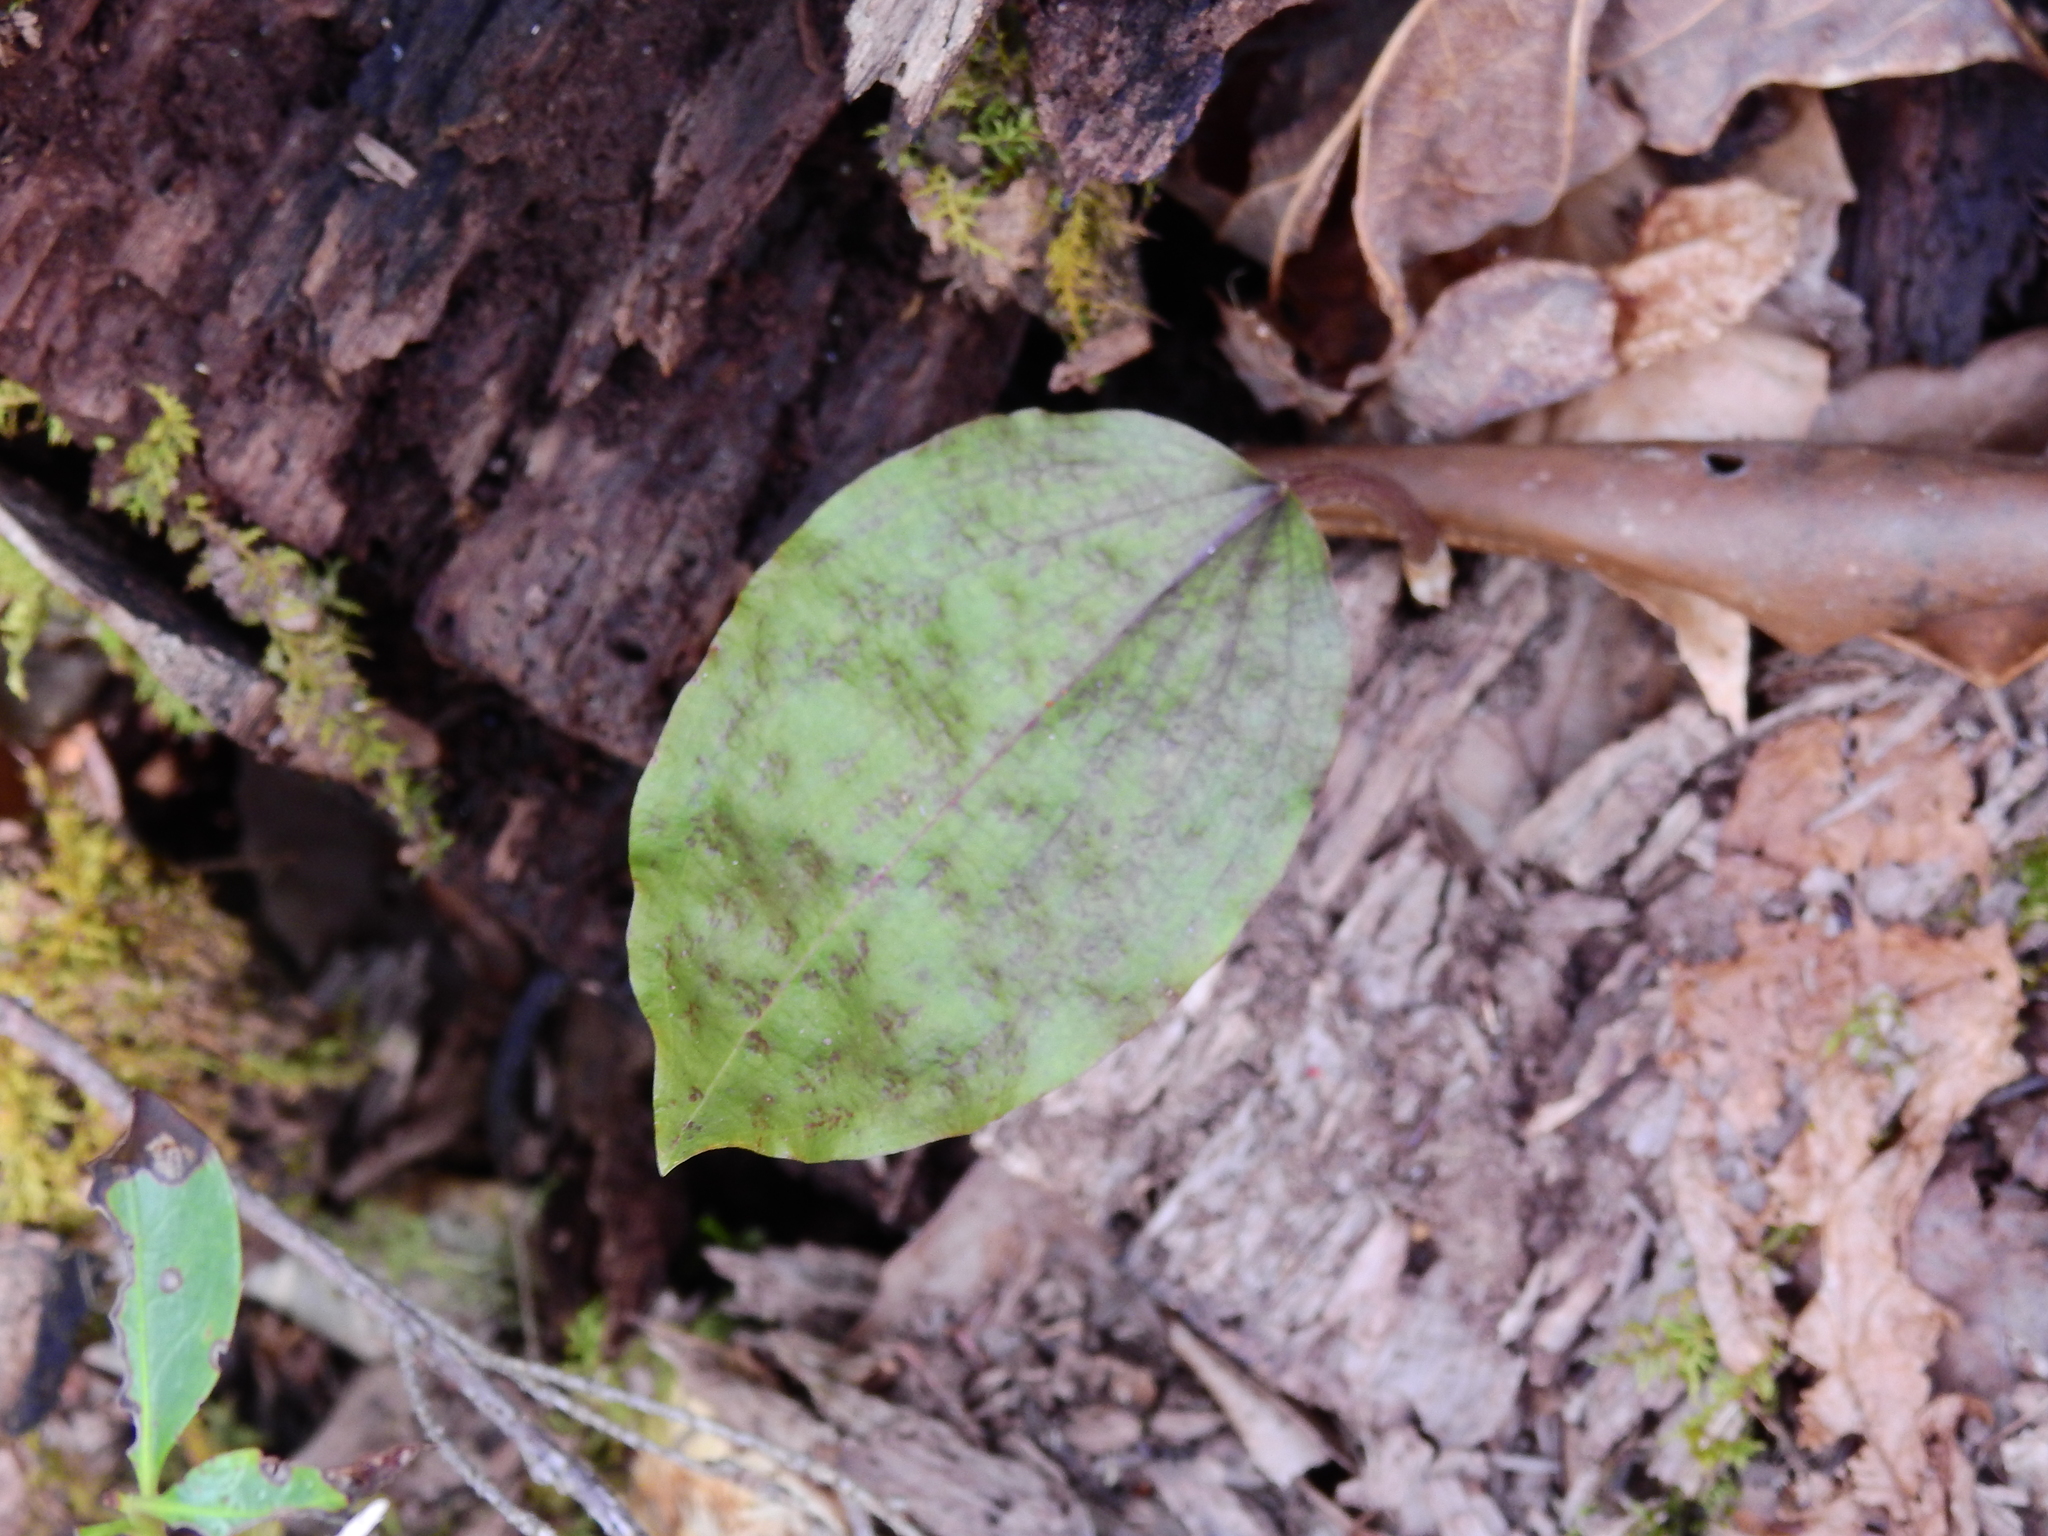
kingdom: Plantae
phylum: Tracheophyta
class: Liliopsida
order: Asparagales
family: Orchidaceae
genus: Tipularia
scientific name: Tipularia discolor
